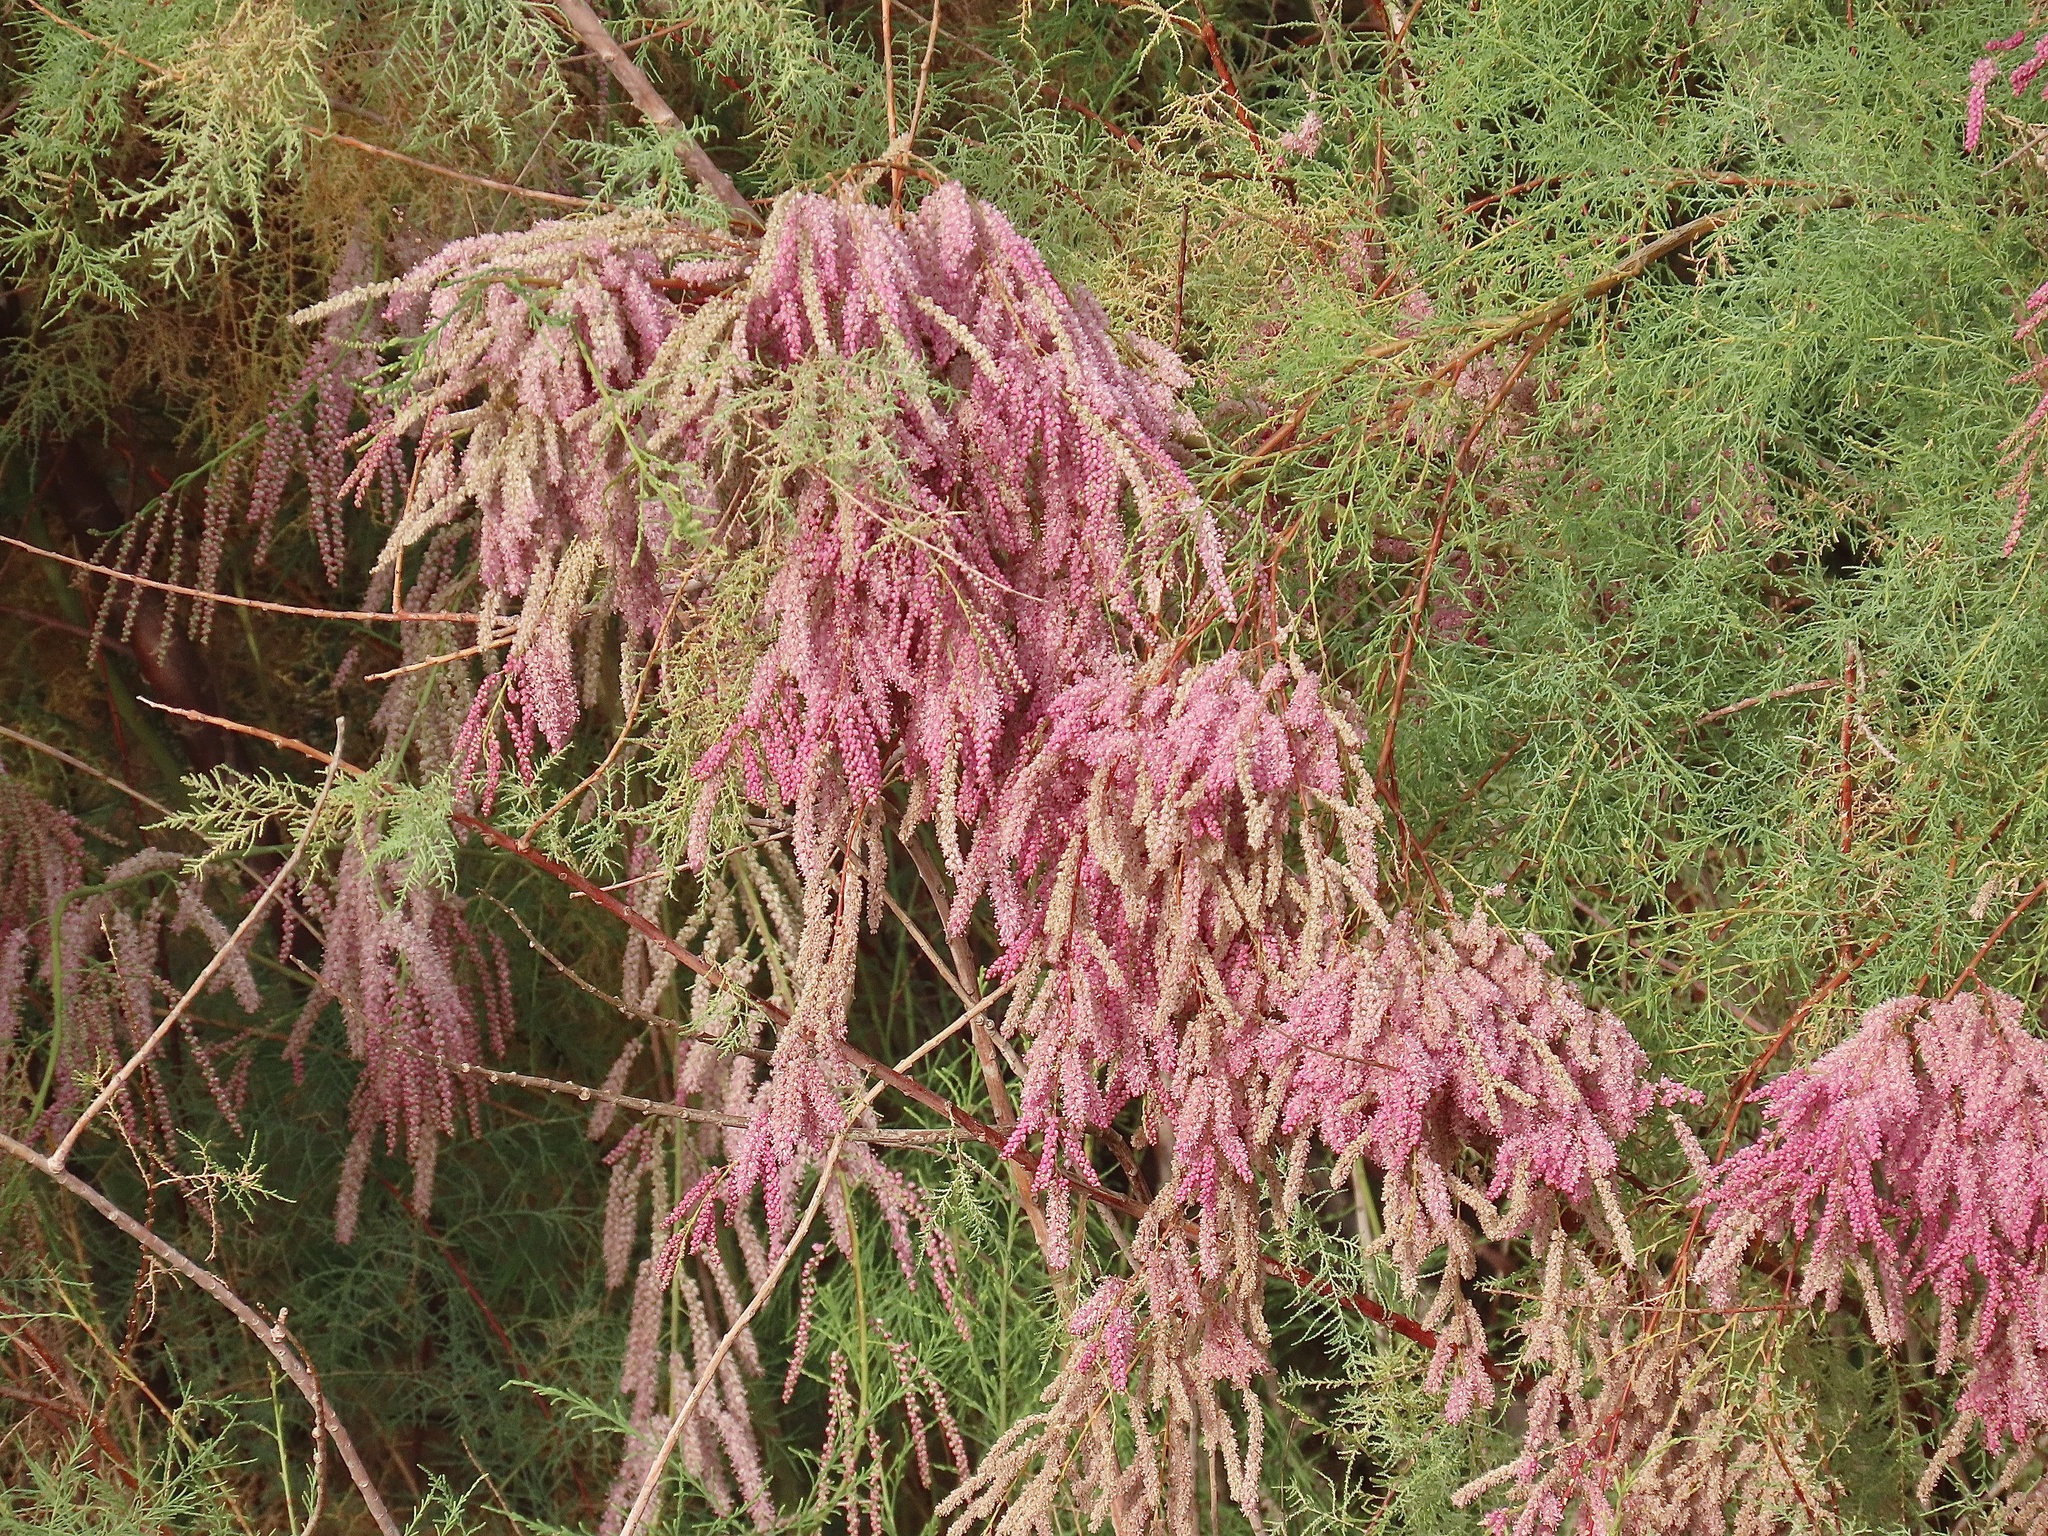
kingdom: Plantae
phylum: Tracheophyta
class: Magnoliopsida
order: Caryophyllales
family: Tamaricaceae
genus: Tamarix
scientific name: Tamarix ramosissima
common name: Pink tamarisk
